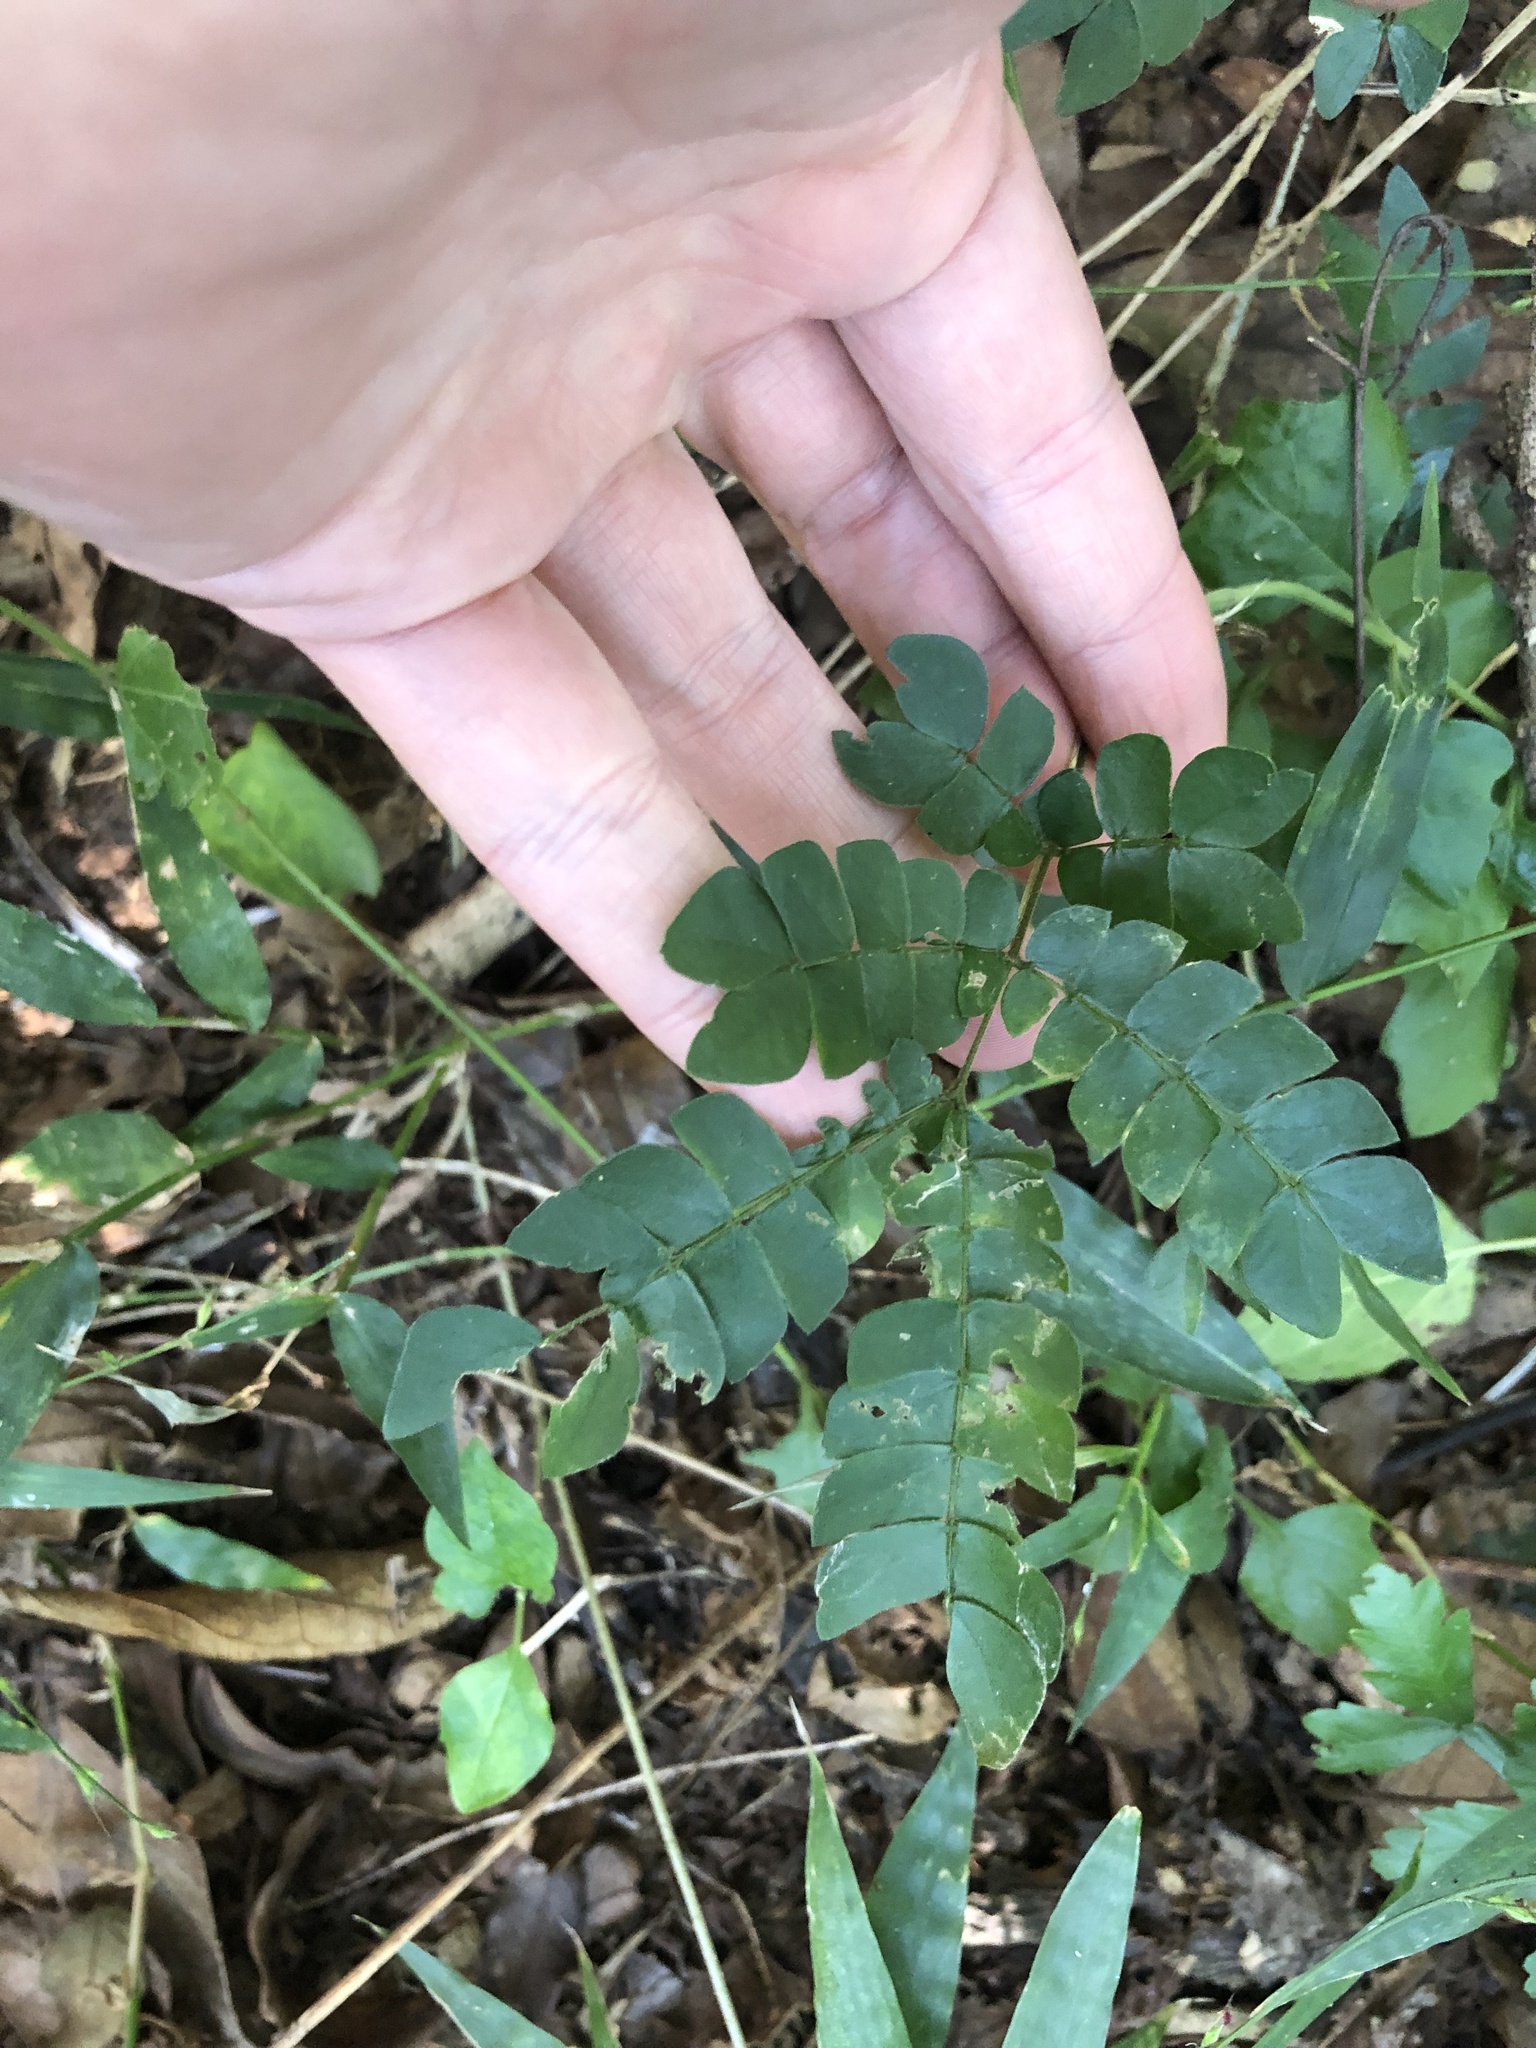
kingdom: Plantae
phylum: Tracheophyta
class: Magnoliopsida
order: Fabales
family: Fabaceae
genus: Albizia
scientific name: Albizia adianthifolia
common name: West african albizia
